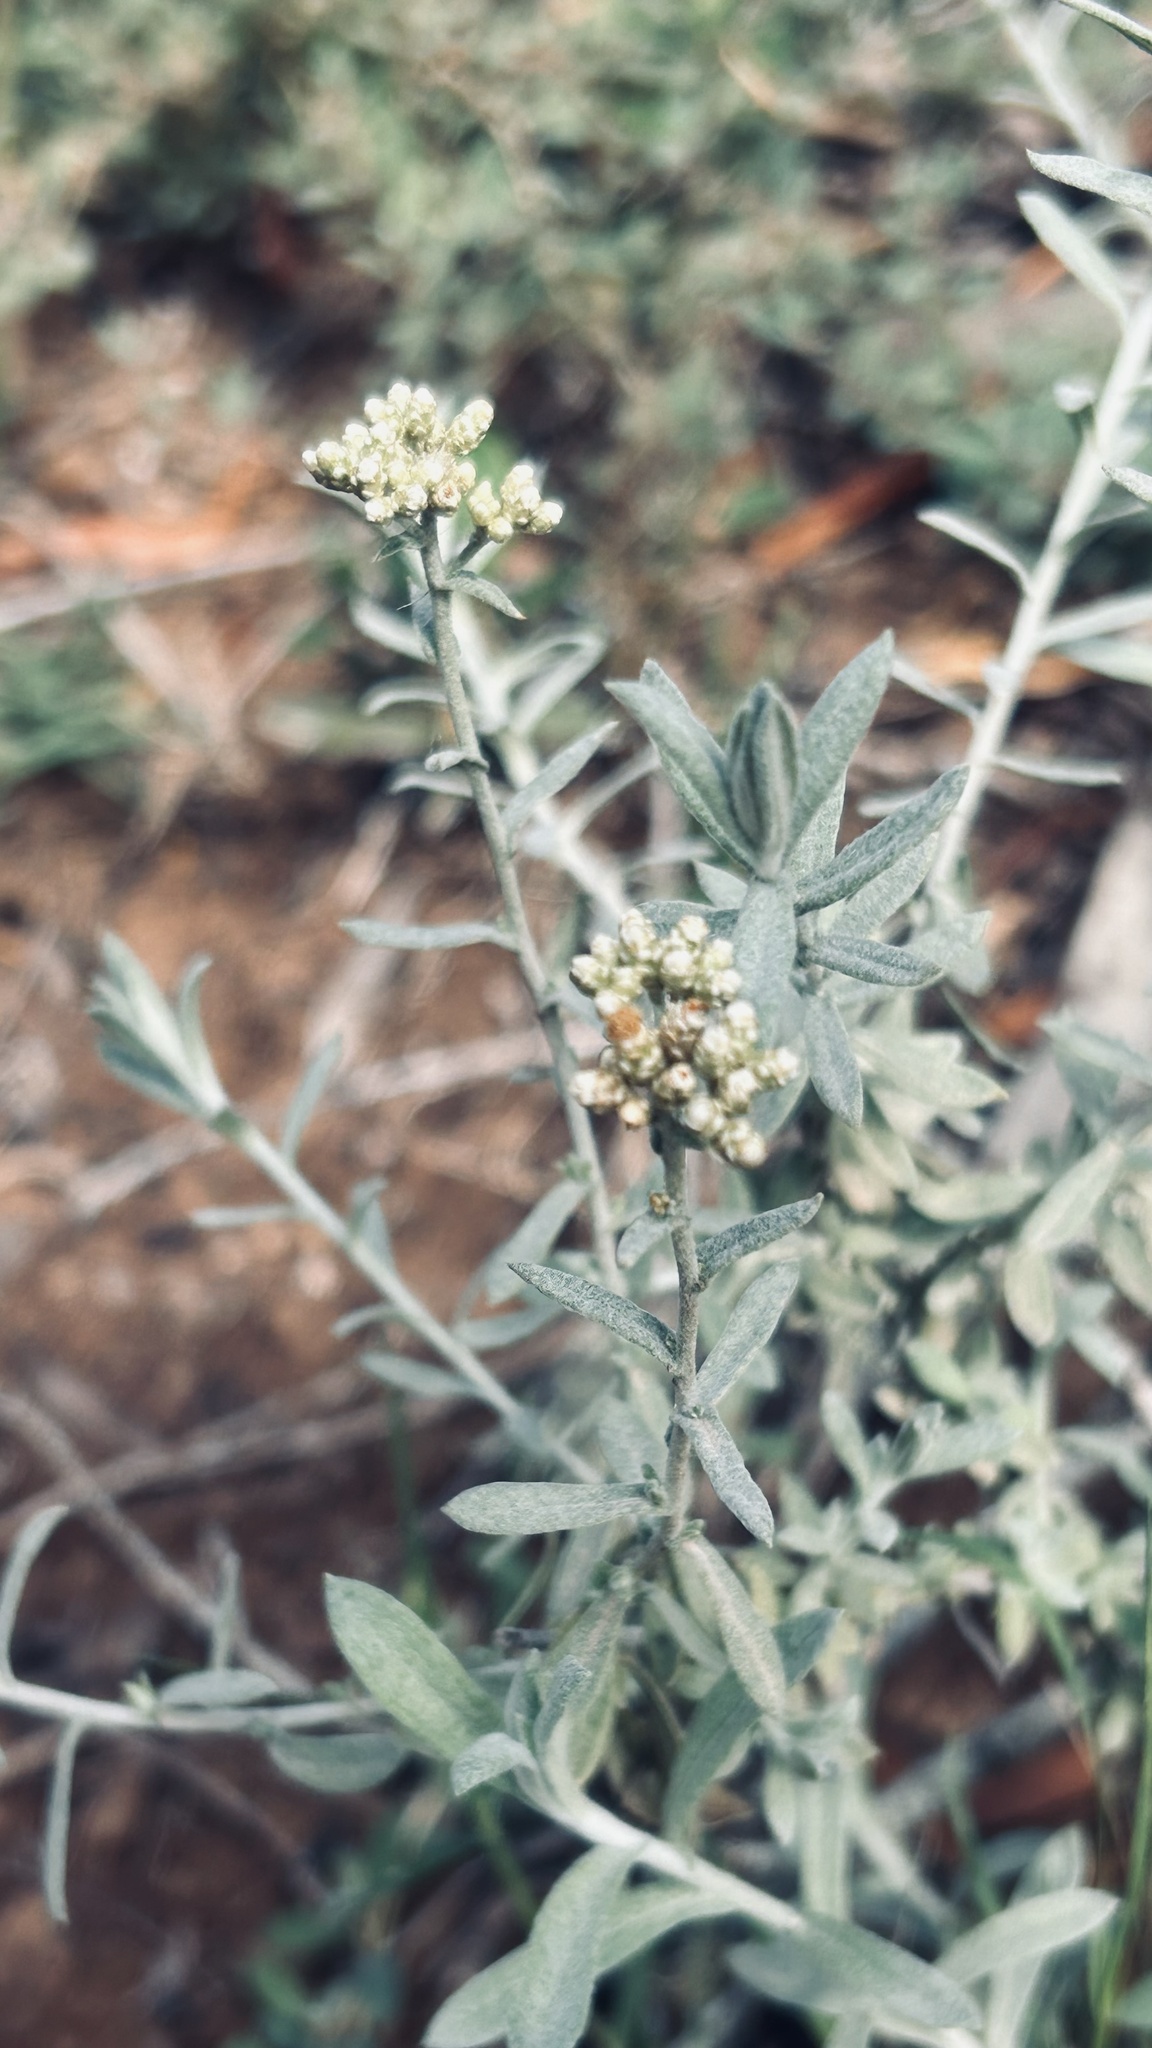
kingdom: Plantae
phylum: Tracheophyta
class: Magnoliopsida
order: Asterales
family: Asteraceae
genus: Helichrysum
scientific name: Helichrysum rosum
